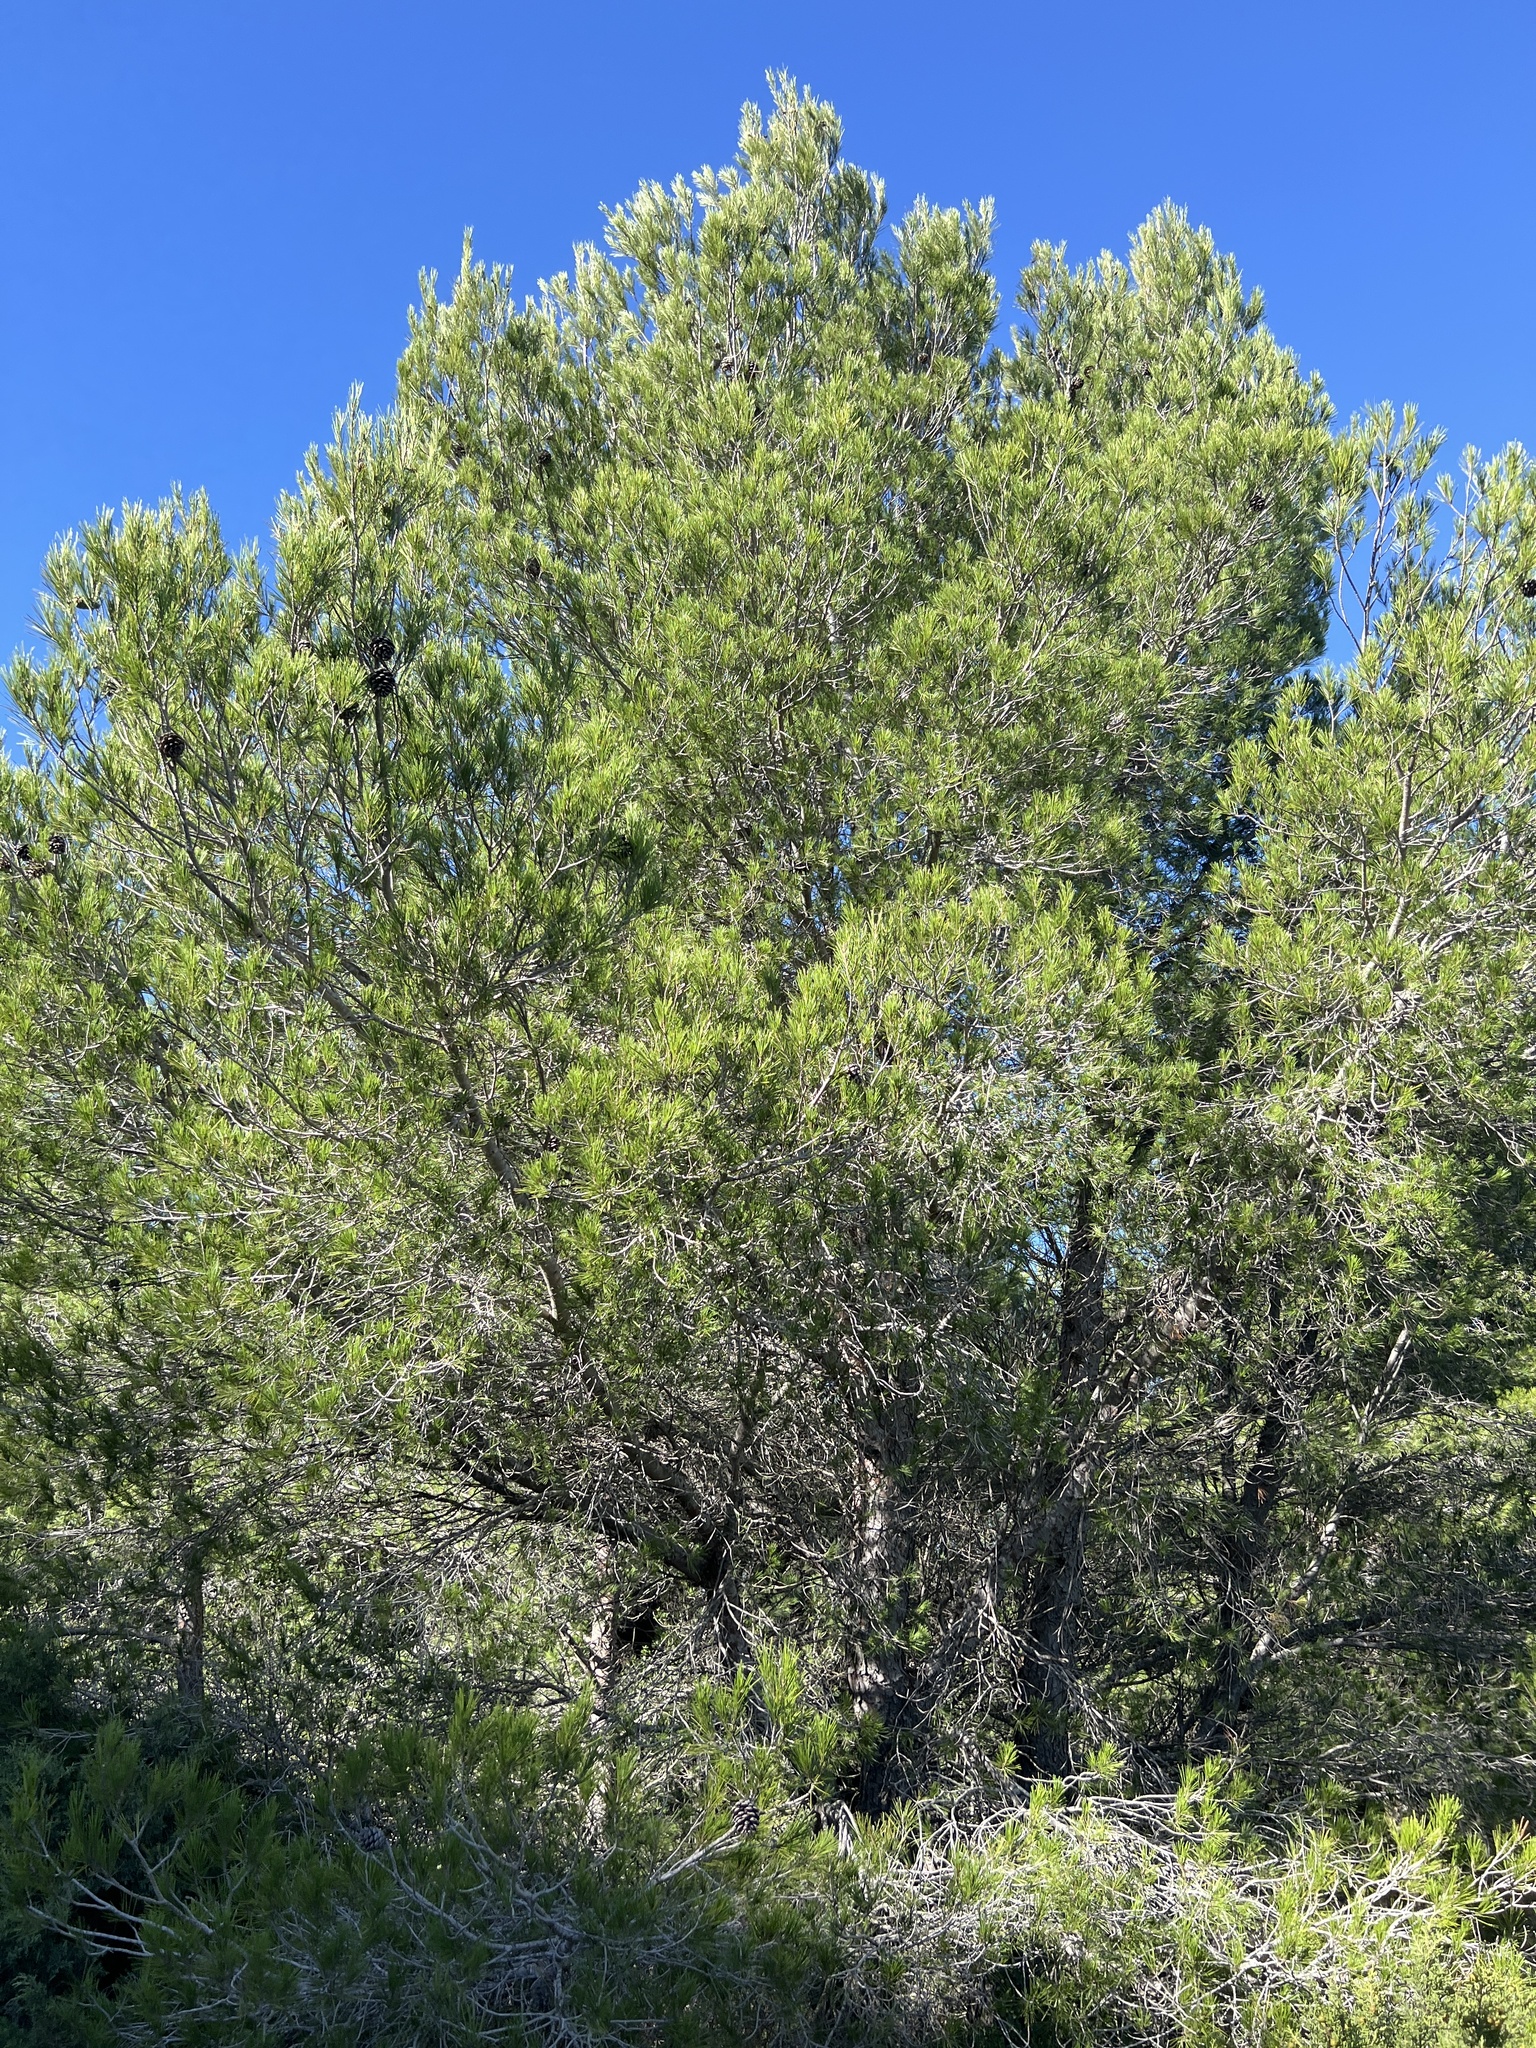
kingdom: Plantae
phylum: Tracheophyta
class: Pinopsida
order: Pinales
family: Pinaceae
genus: Pinus
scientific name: Pinus halepensis
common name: Aleppo pine
